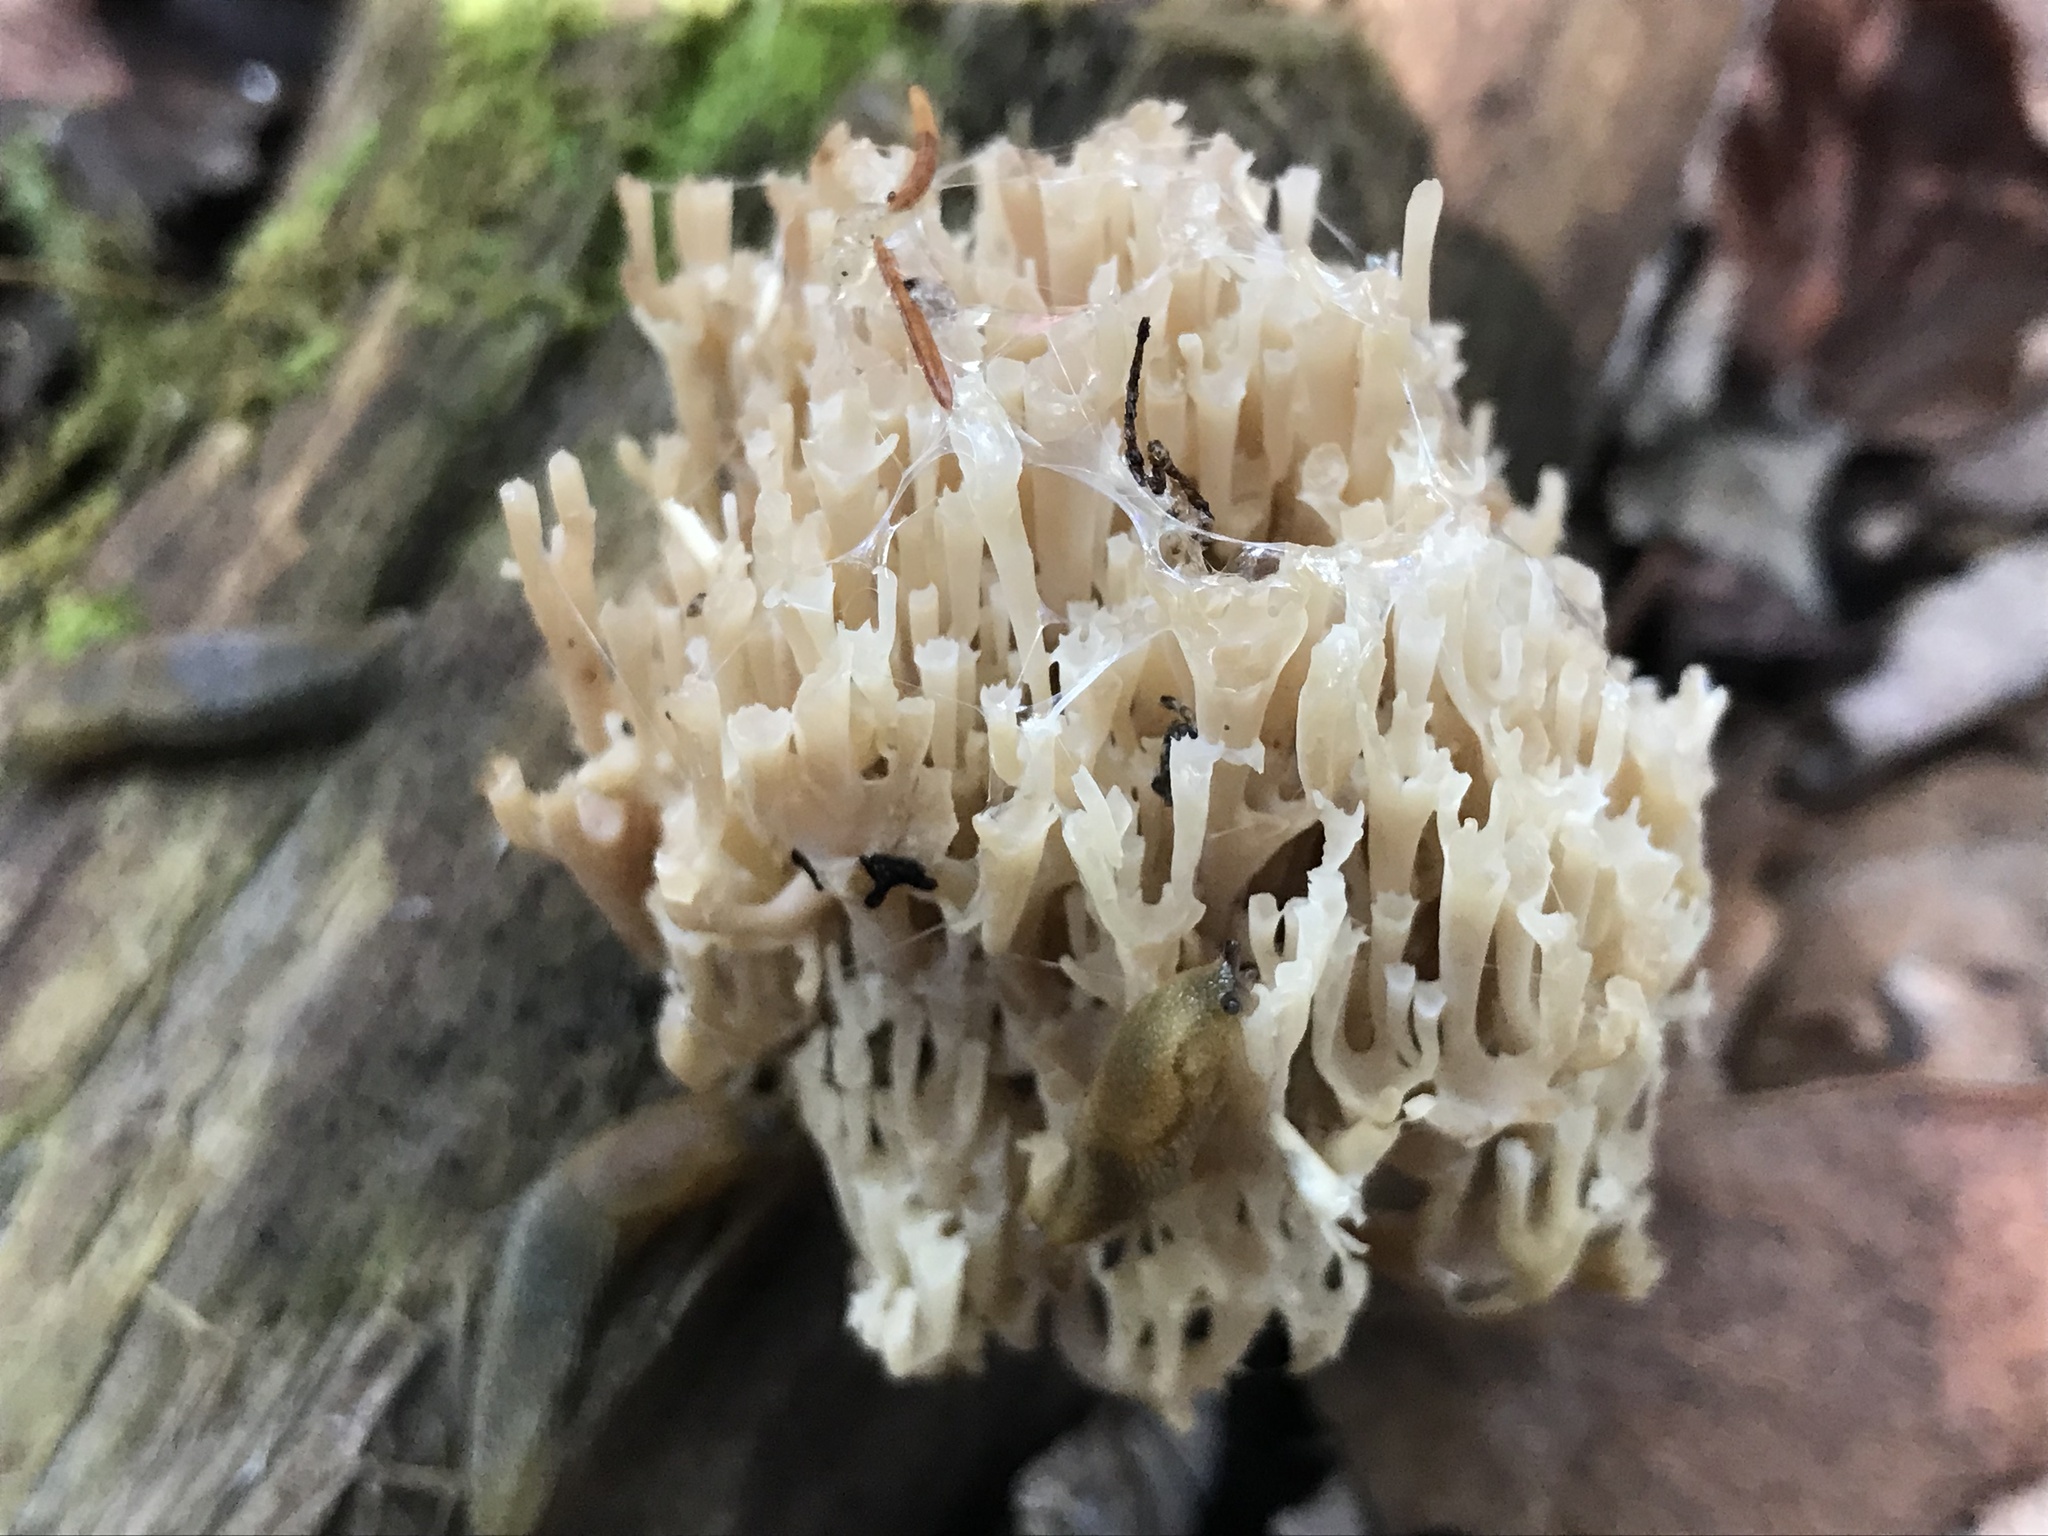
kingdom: Fungi
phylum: Basidiomycota
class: Agaricomycetes
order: Russulales
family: Auriscalpiaceae
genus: Artomyces
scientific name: Artomyces pyxidatus
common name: Crown-tipped coral fungus
